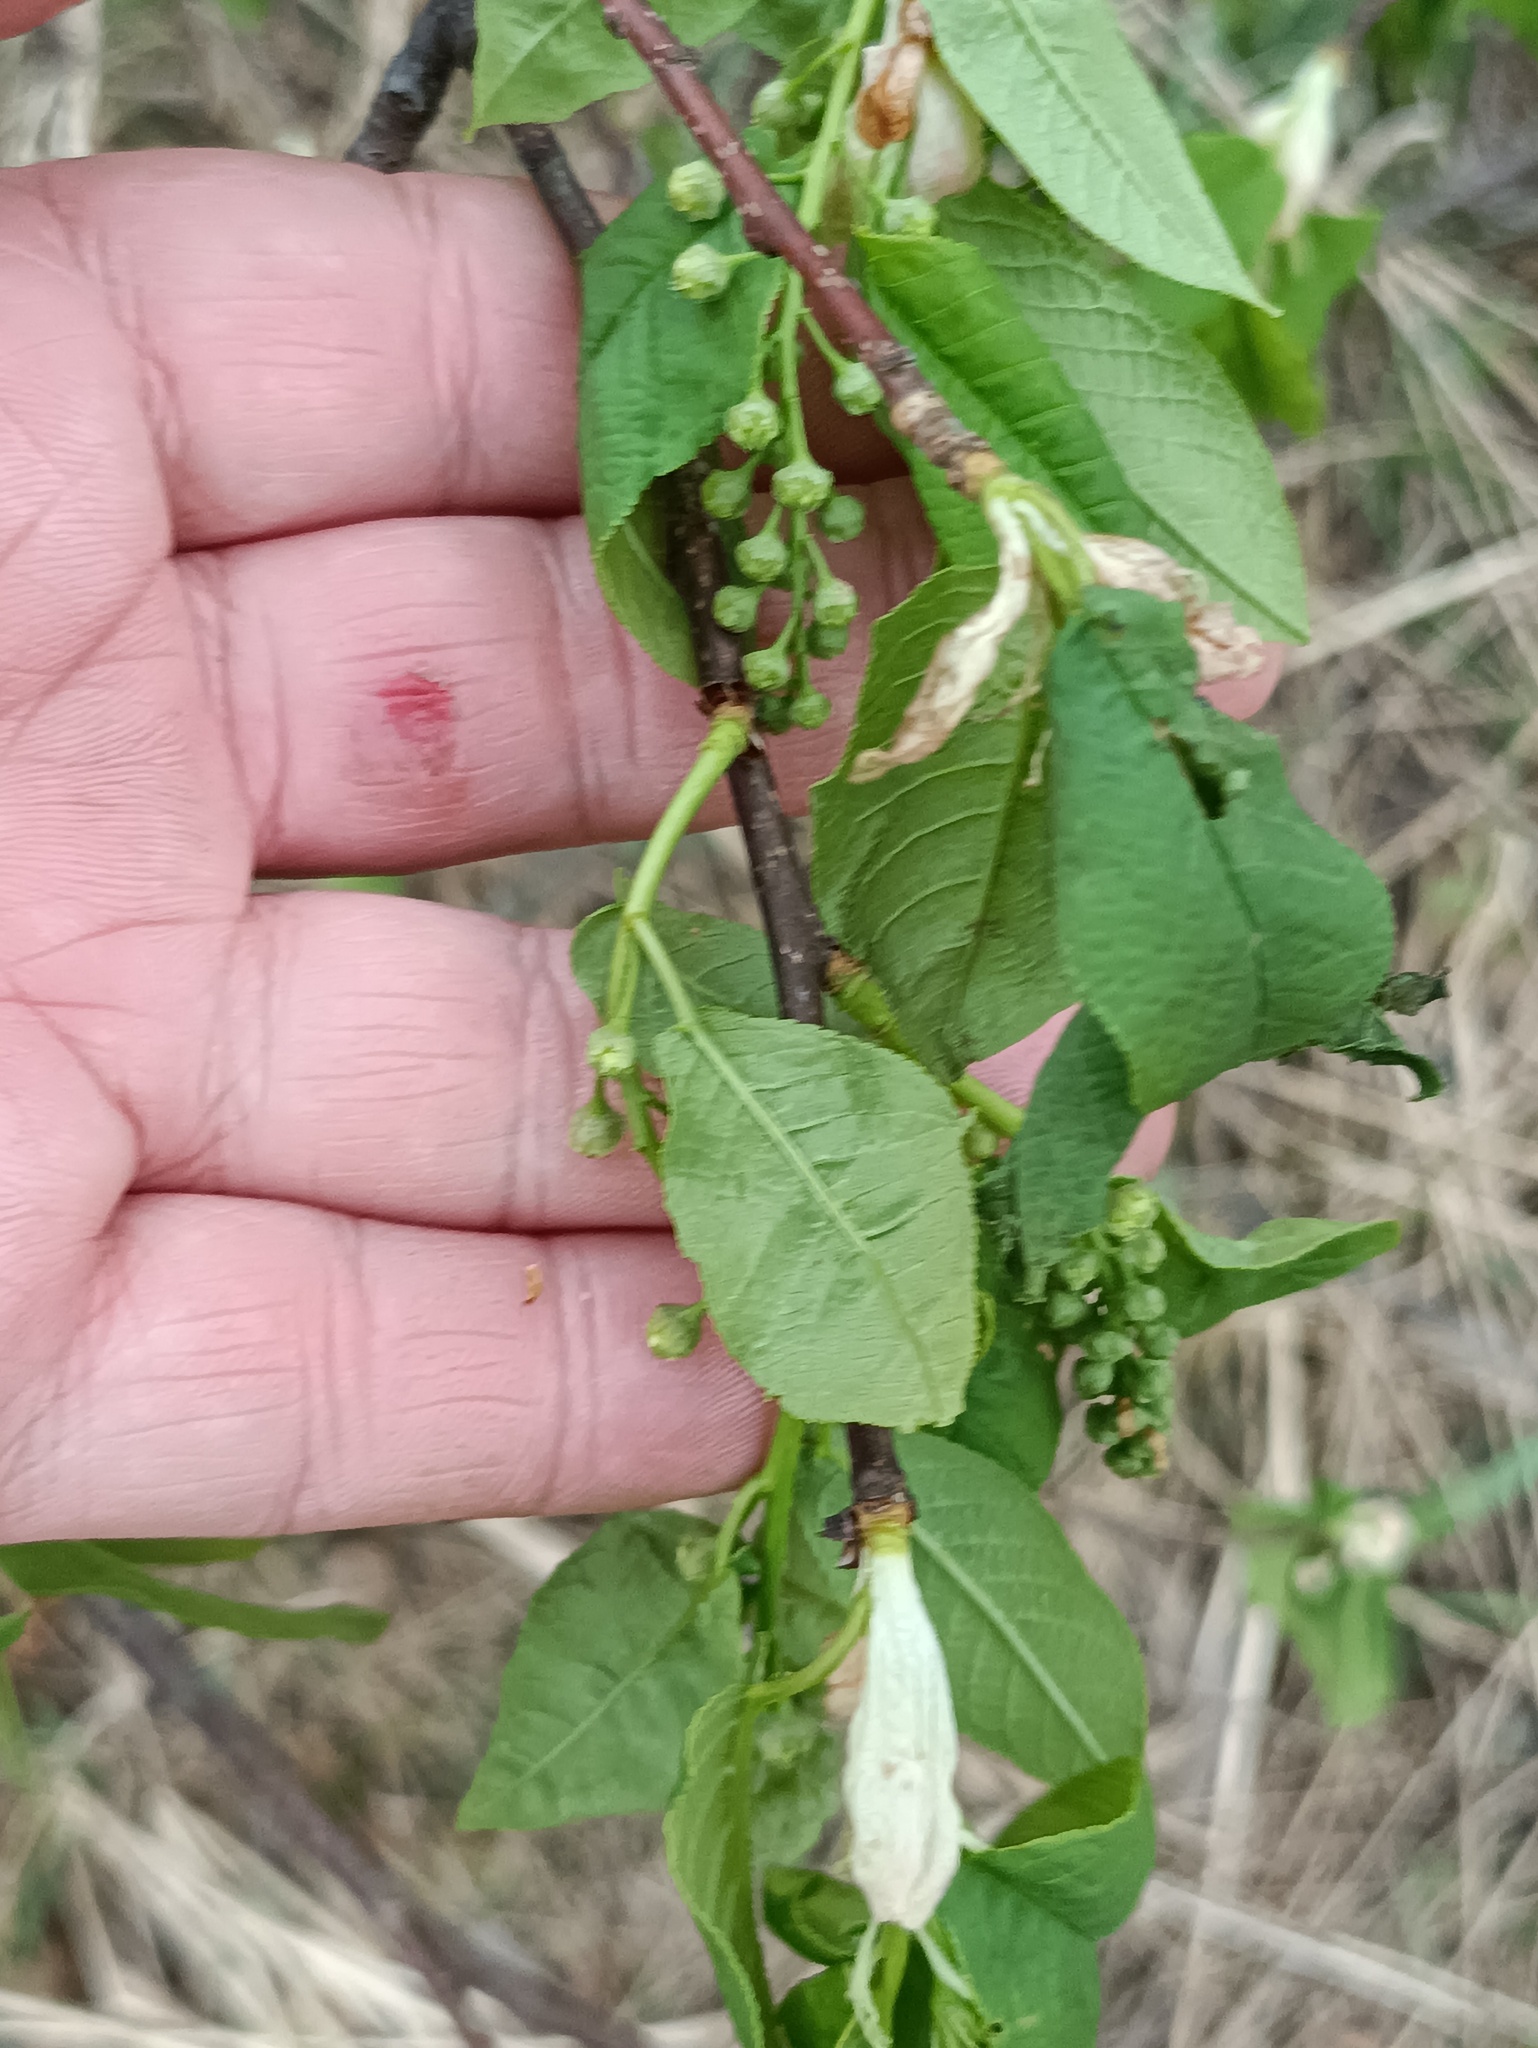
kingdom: Plantae
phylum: Tracheophyta
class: Magnoliopsida
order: Rosales
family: Rosaceae
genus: Prunus
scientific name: Prunus padus
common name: Bird cherry
